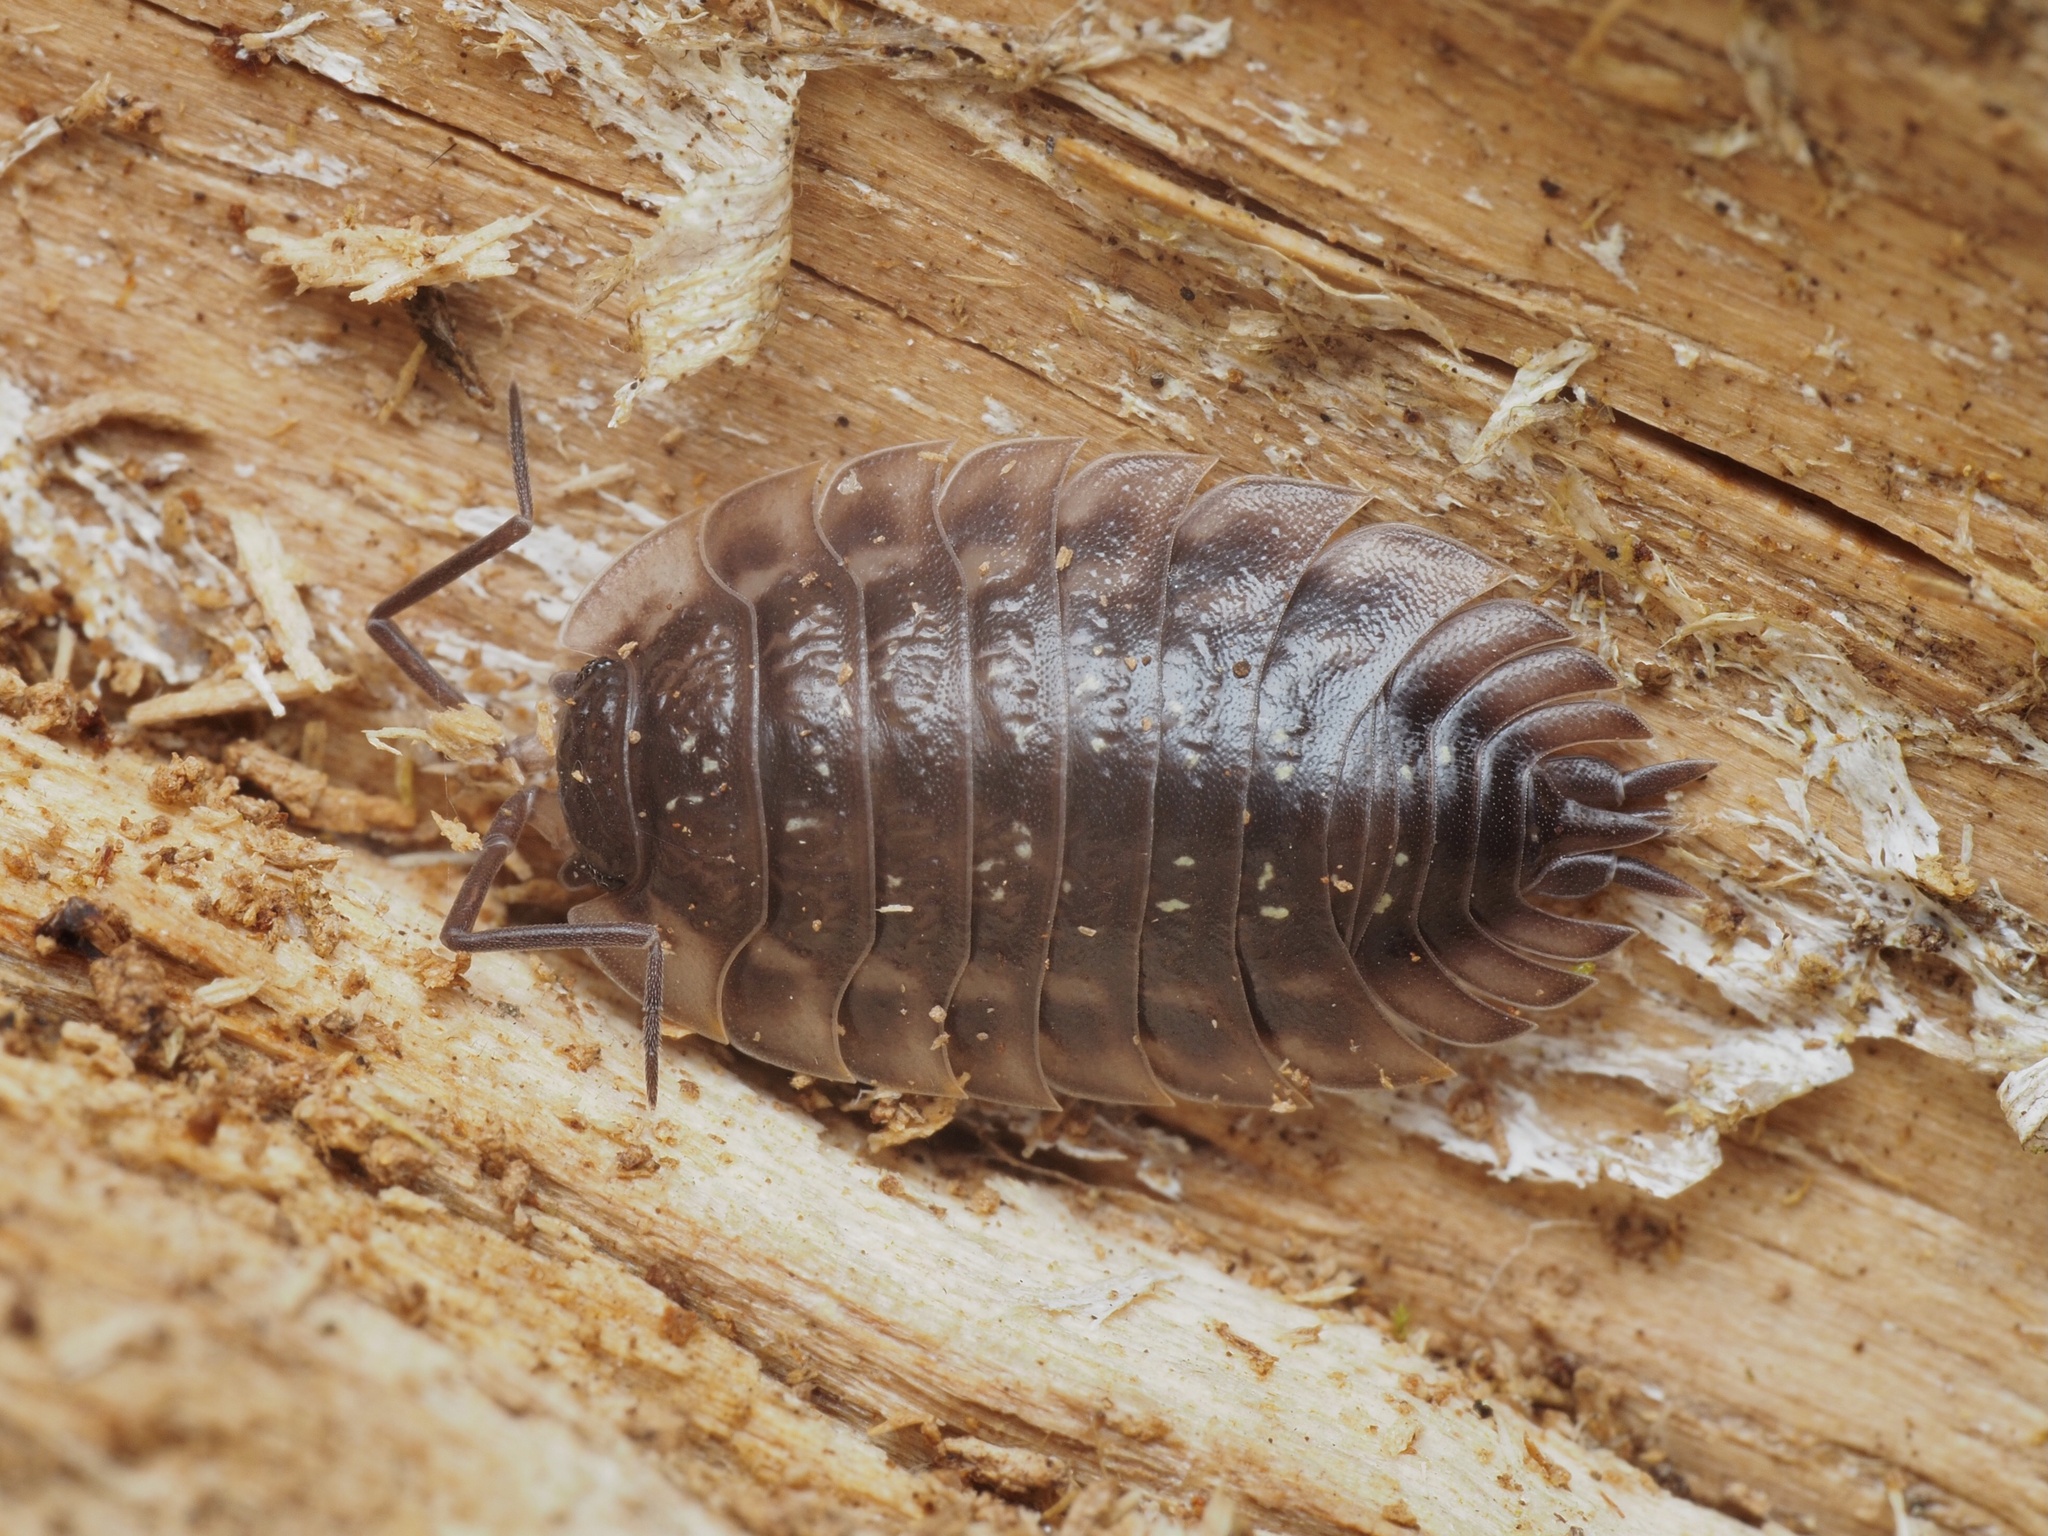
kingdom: Animalia
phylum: Arthropoda
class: Malacostraca
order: Isopoda
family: Oniscidae
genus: Oniscus
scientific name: Oniscus asellus
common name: Common shiny woodlouse
